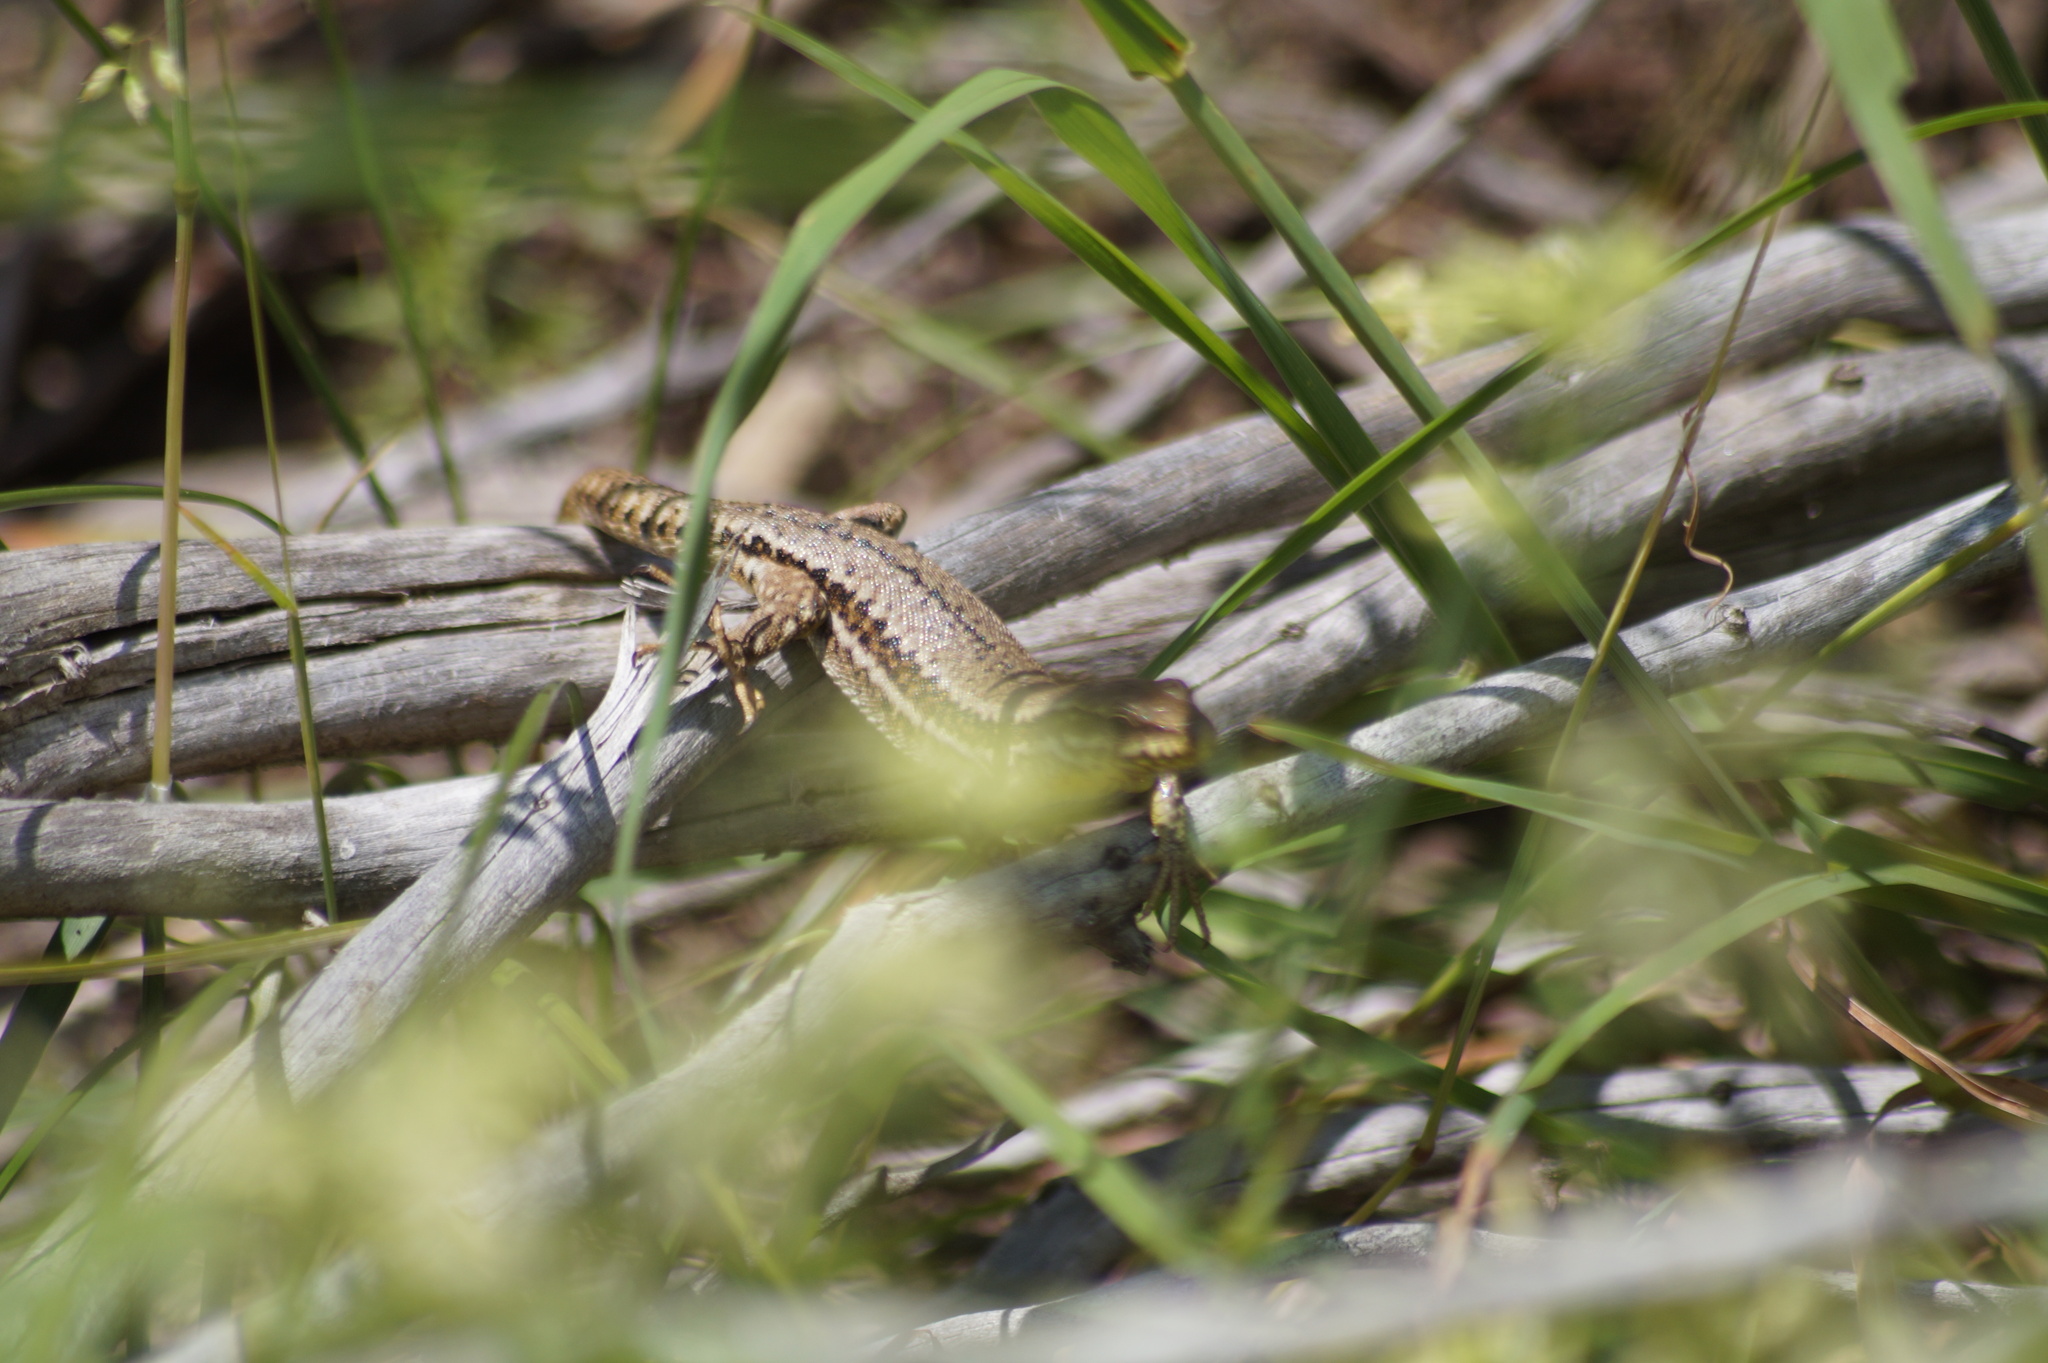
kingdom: Animalia
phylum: Chordata
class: Squamata
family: Lacertidae
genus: Podarcis
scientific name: Podarcis muralis
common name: Common wall lizard
